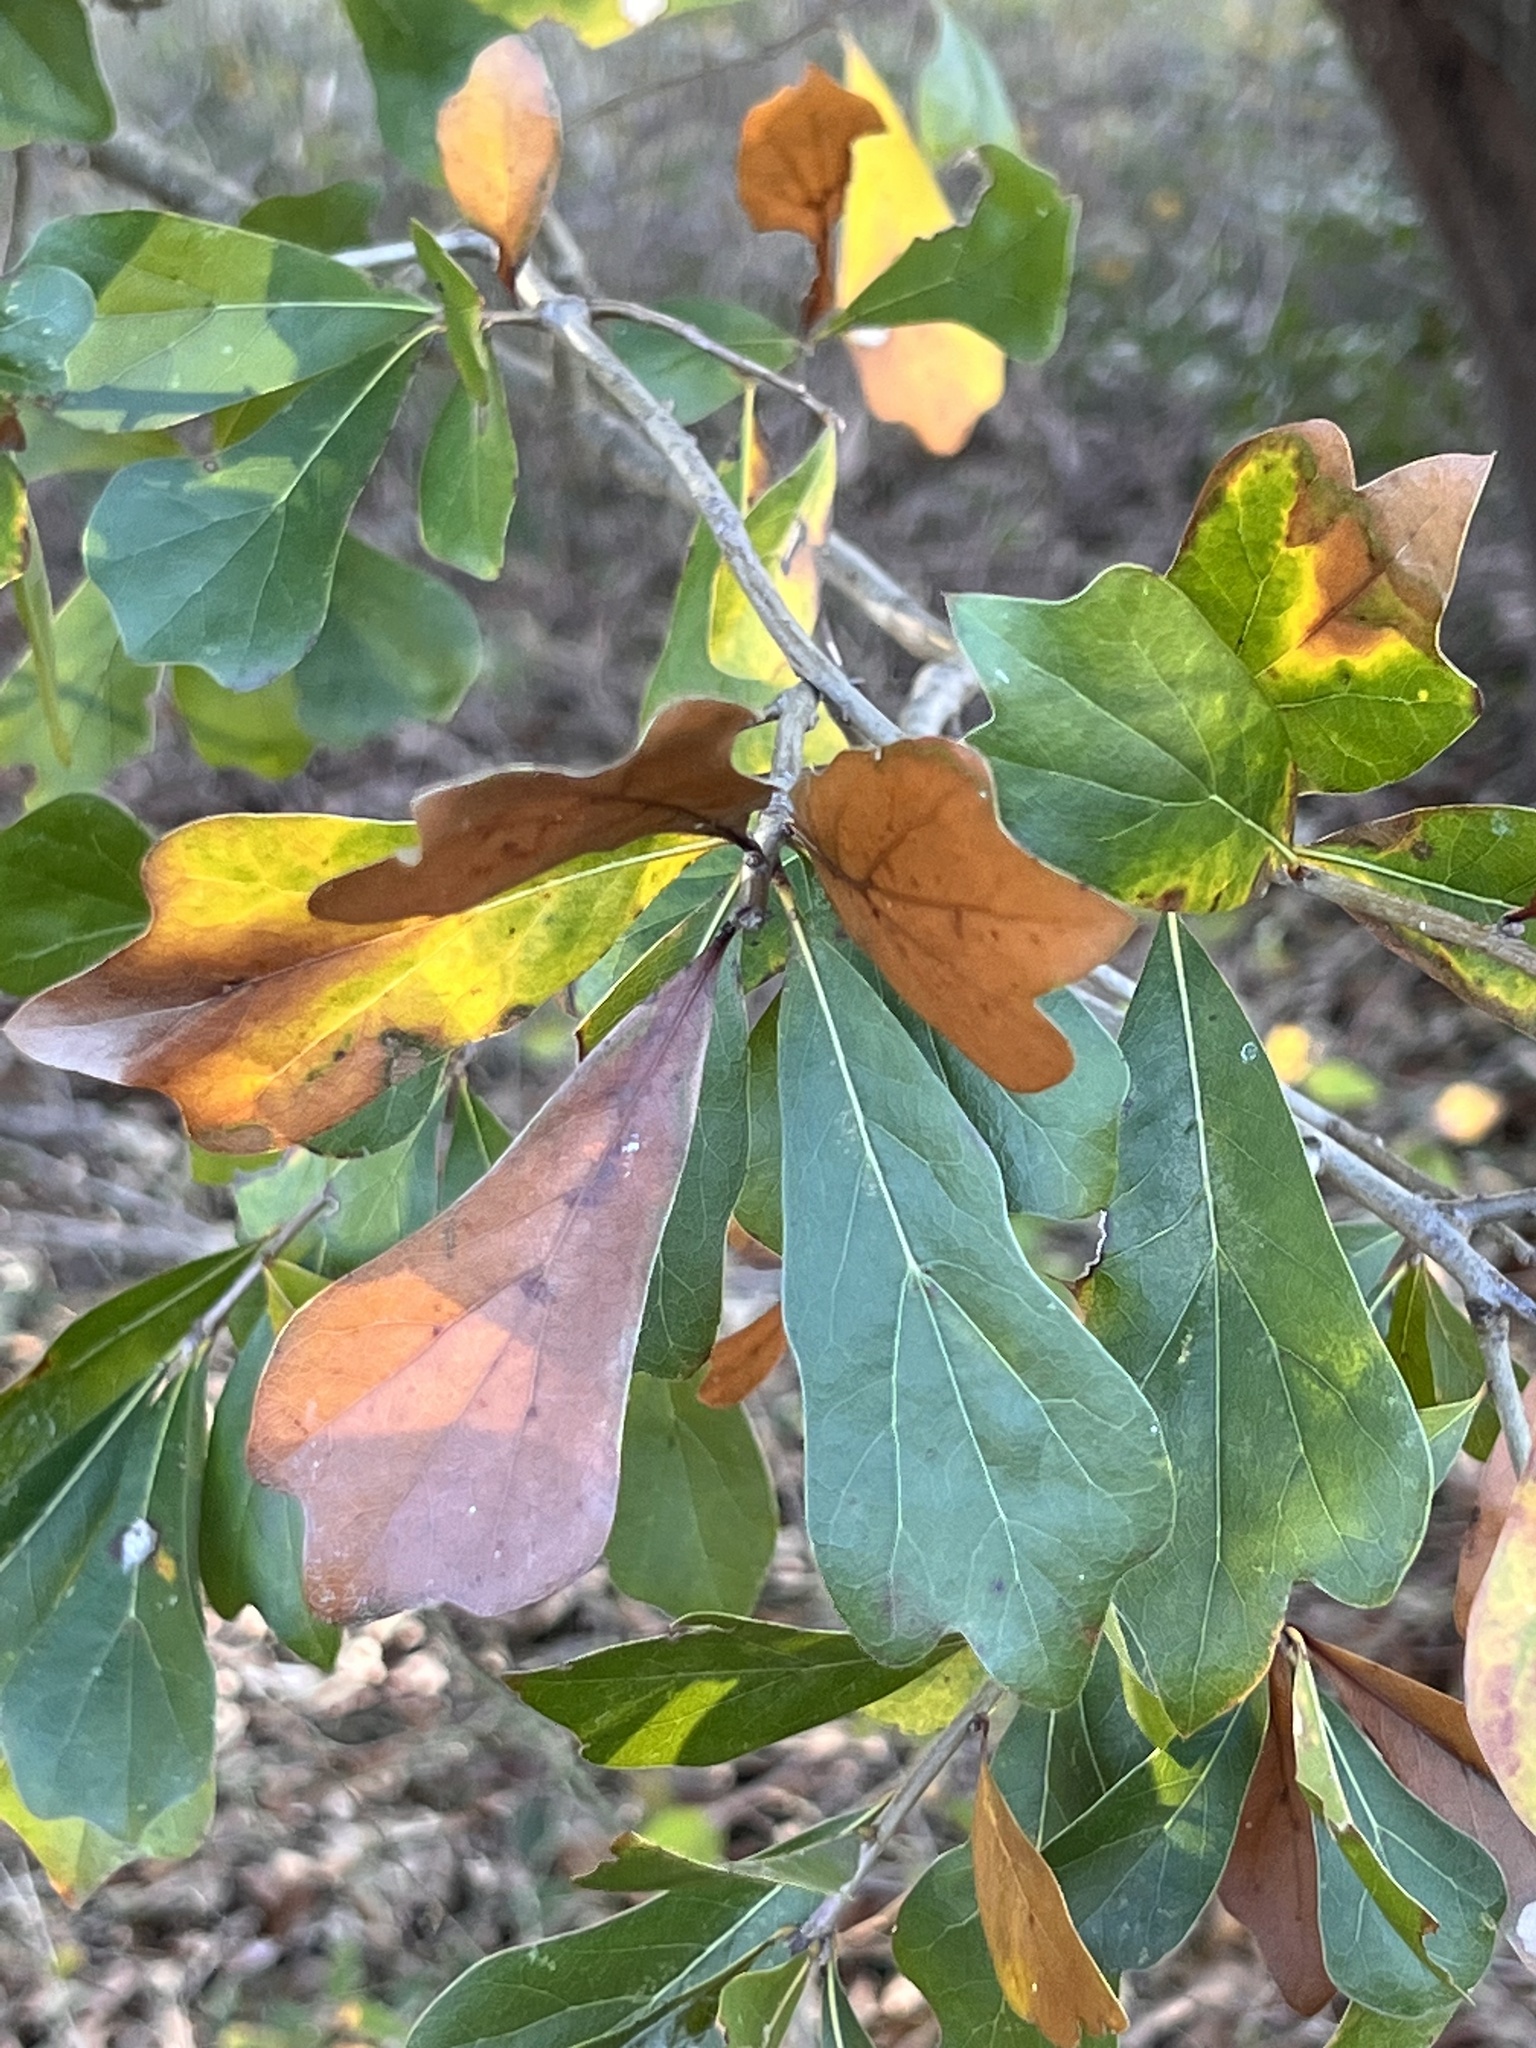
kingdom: Plantae
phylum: Tracheophyta
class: Magnoliopsida
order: Fagales
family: Fagaceae
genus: Quercus
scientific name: Quercus nigra
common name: Water oak
